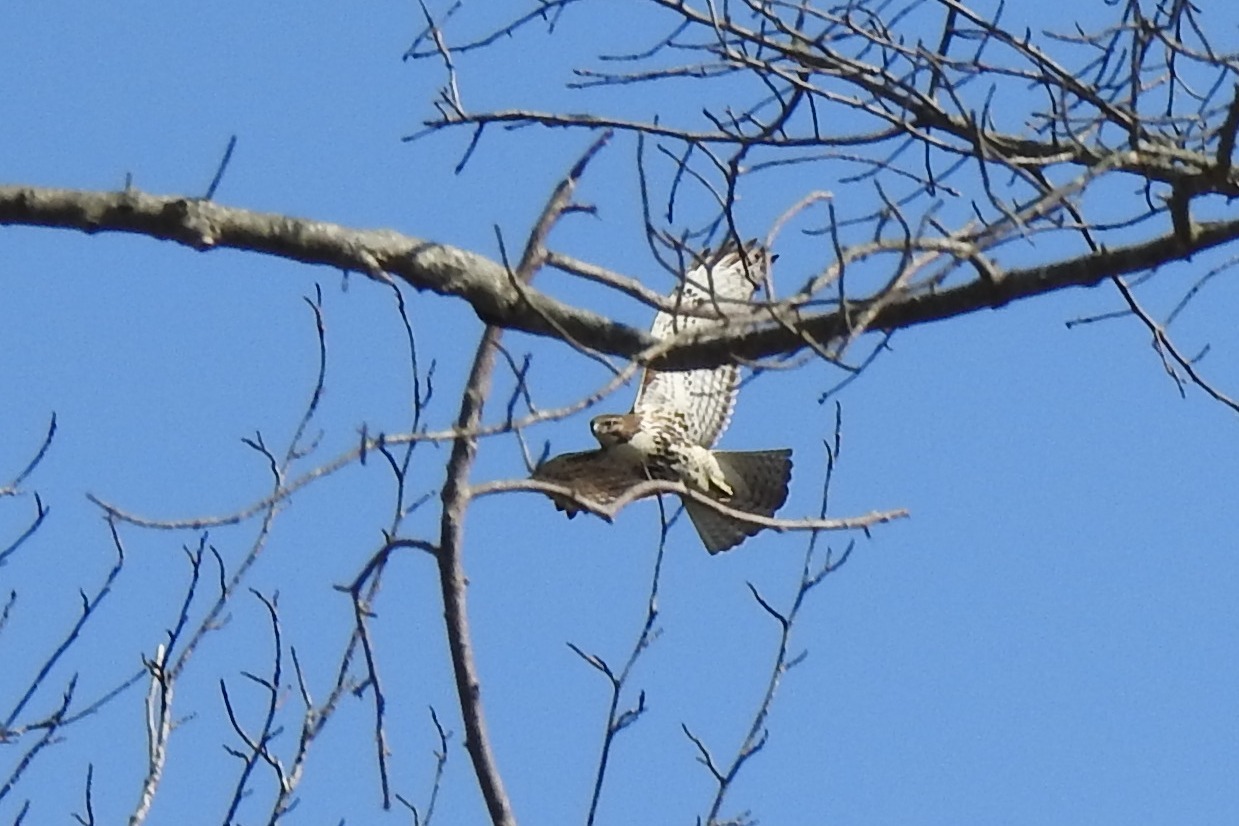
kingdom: Animalia
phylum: Chordata
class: Aves
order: Accipitriformes
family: Accipitridae
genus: Buteo
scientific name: Buteo jamaicensis
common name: Red-tailed hawk
